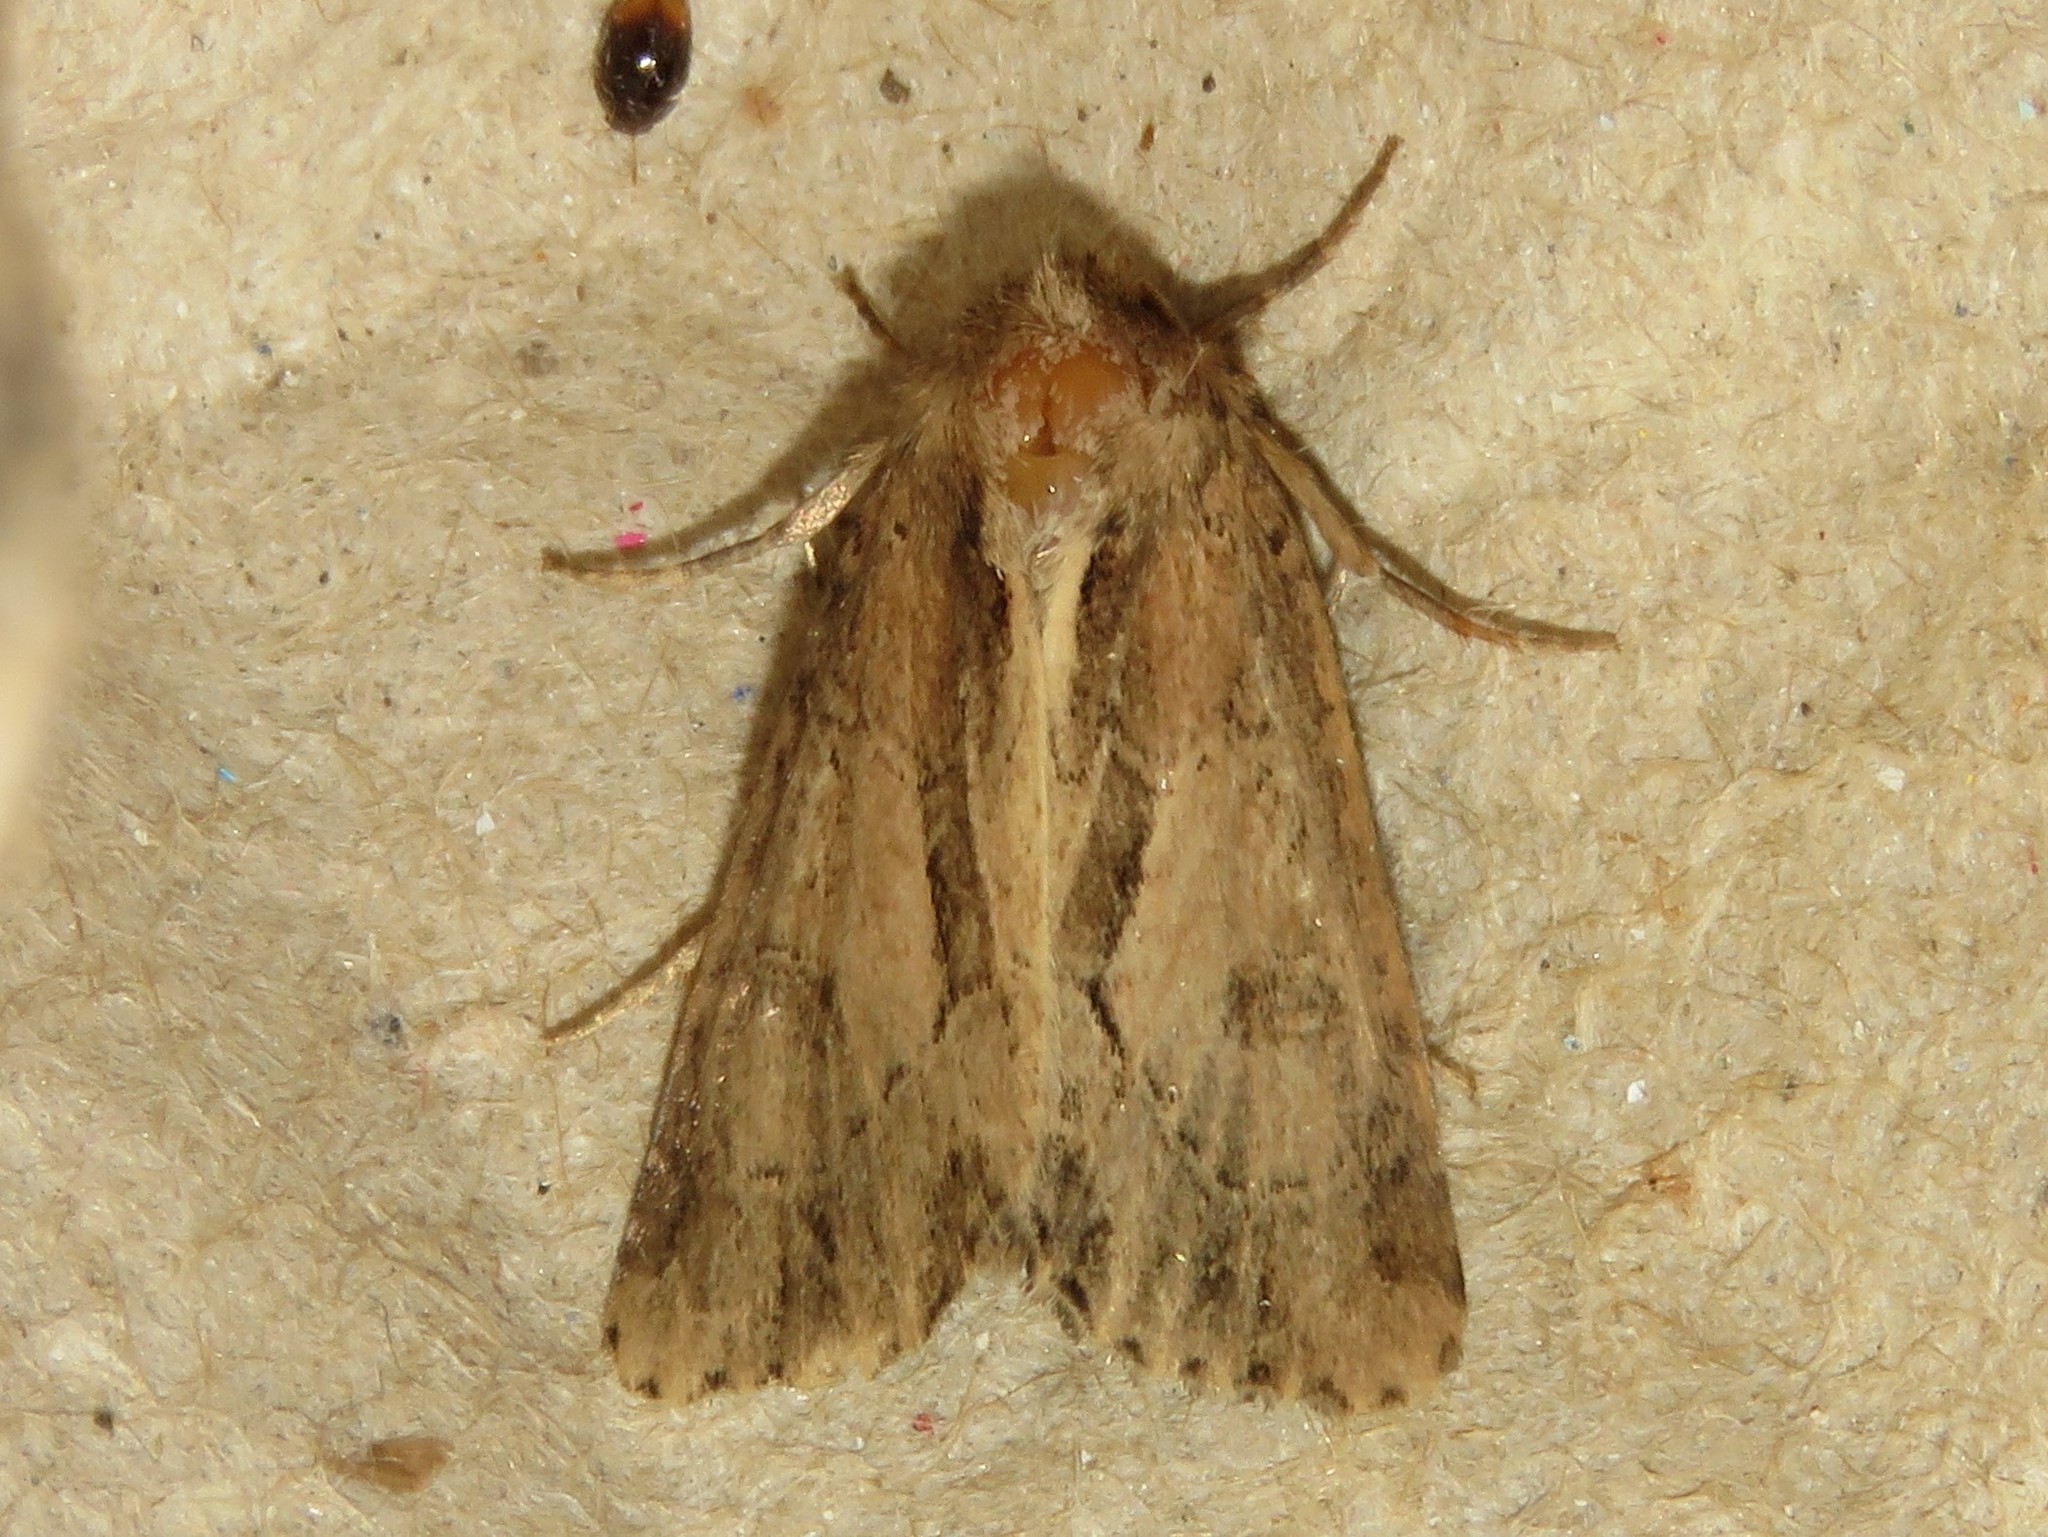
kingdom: Animalia
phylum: Arthropoda
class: Insecta
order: Lepidoptera
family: Noctuidae
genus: Xylomoia
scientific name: Xylomoia chagnoni
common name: Reed canary grass borer moth
